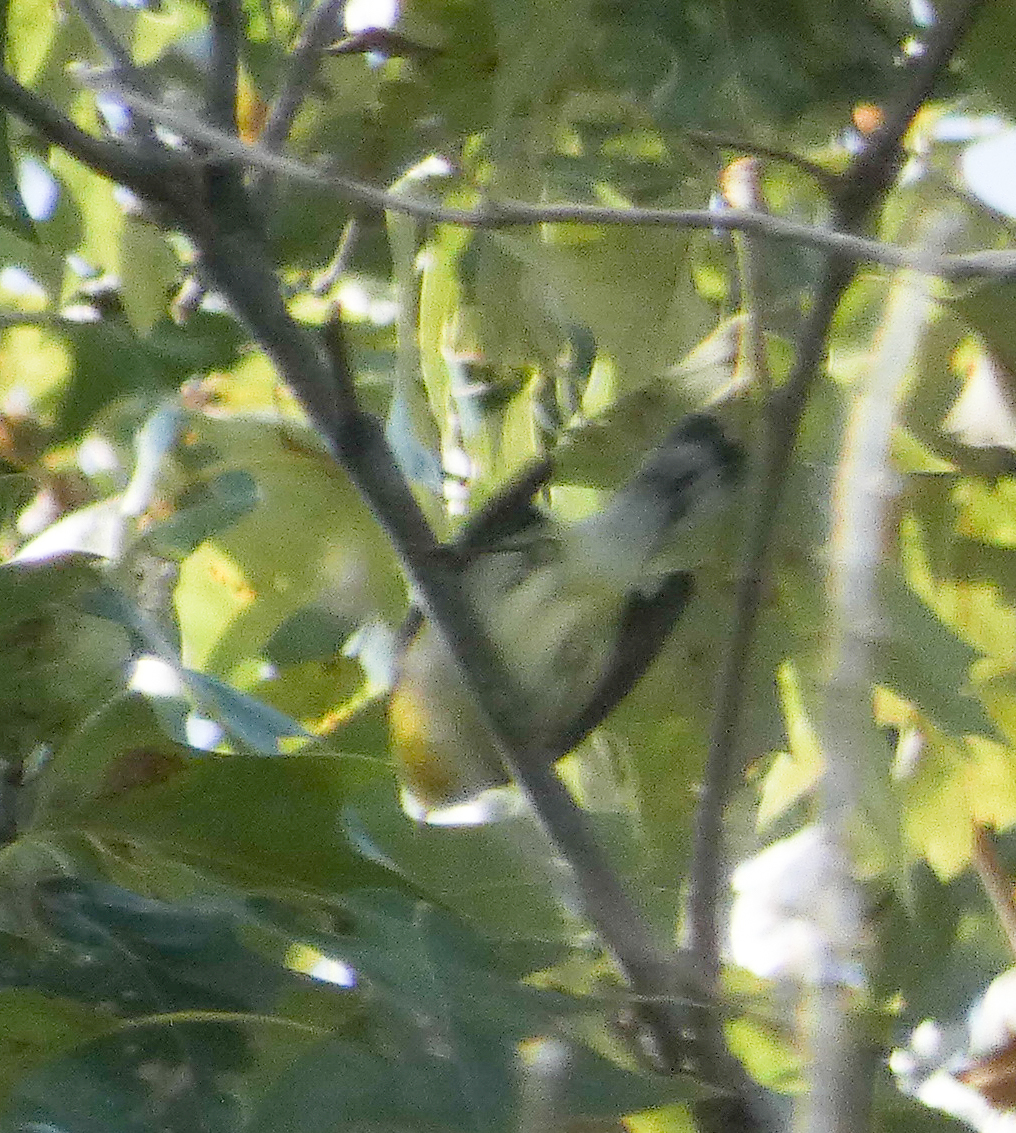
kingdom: Animalia
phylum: Chordata
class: Aves
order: Passeriformes
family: Parulidae
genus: Setophaga
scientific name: Setophaga americana
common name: Northern parula
